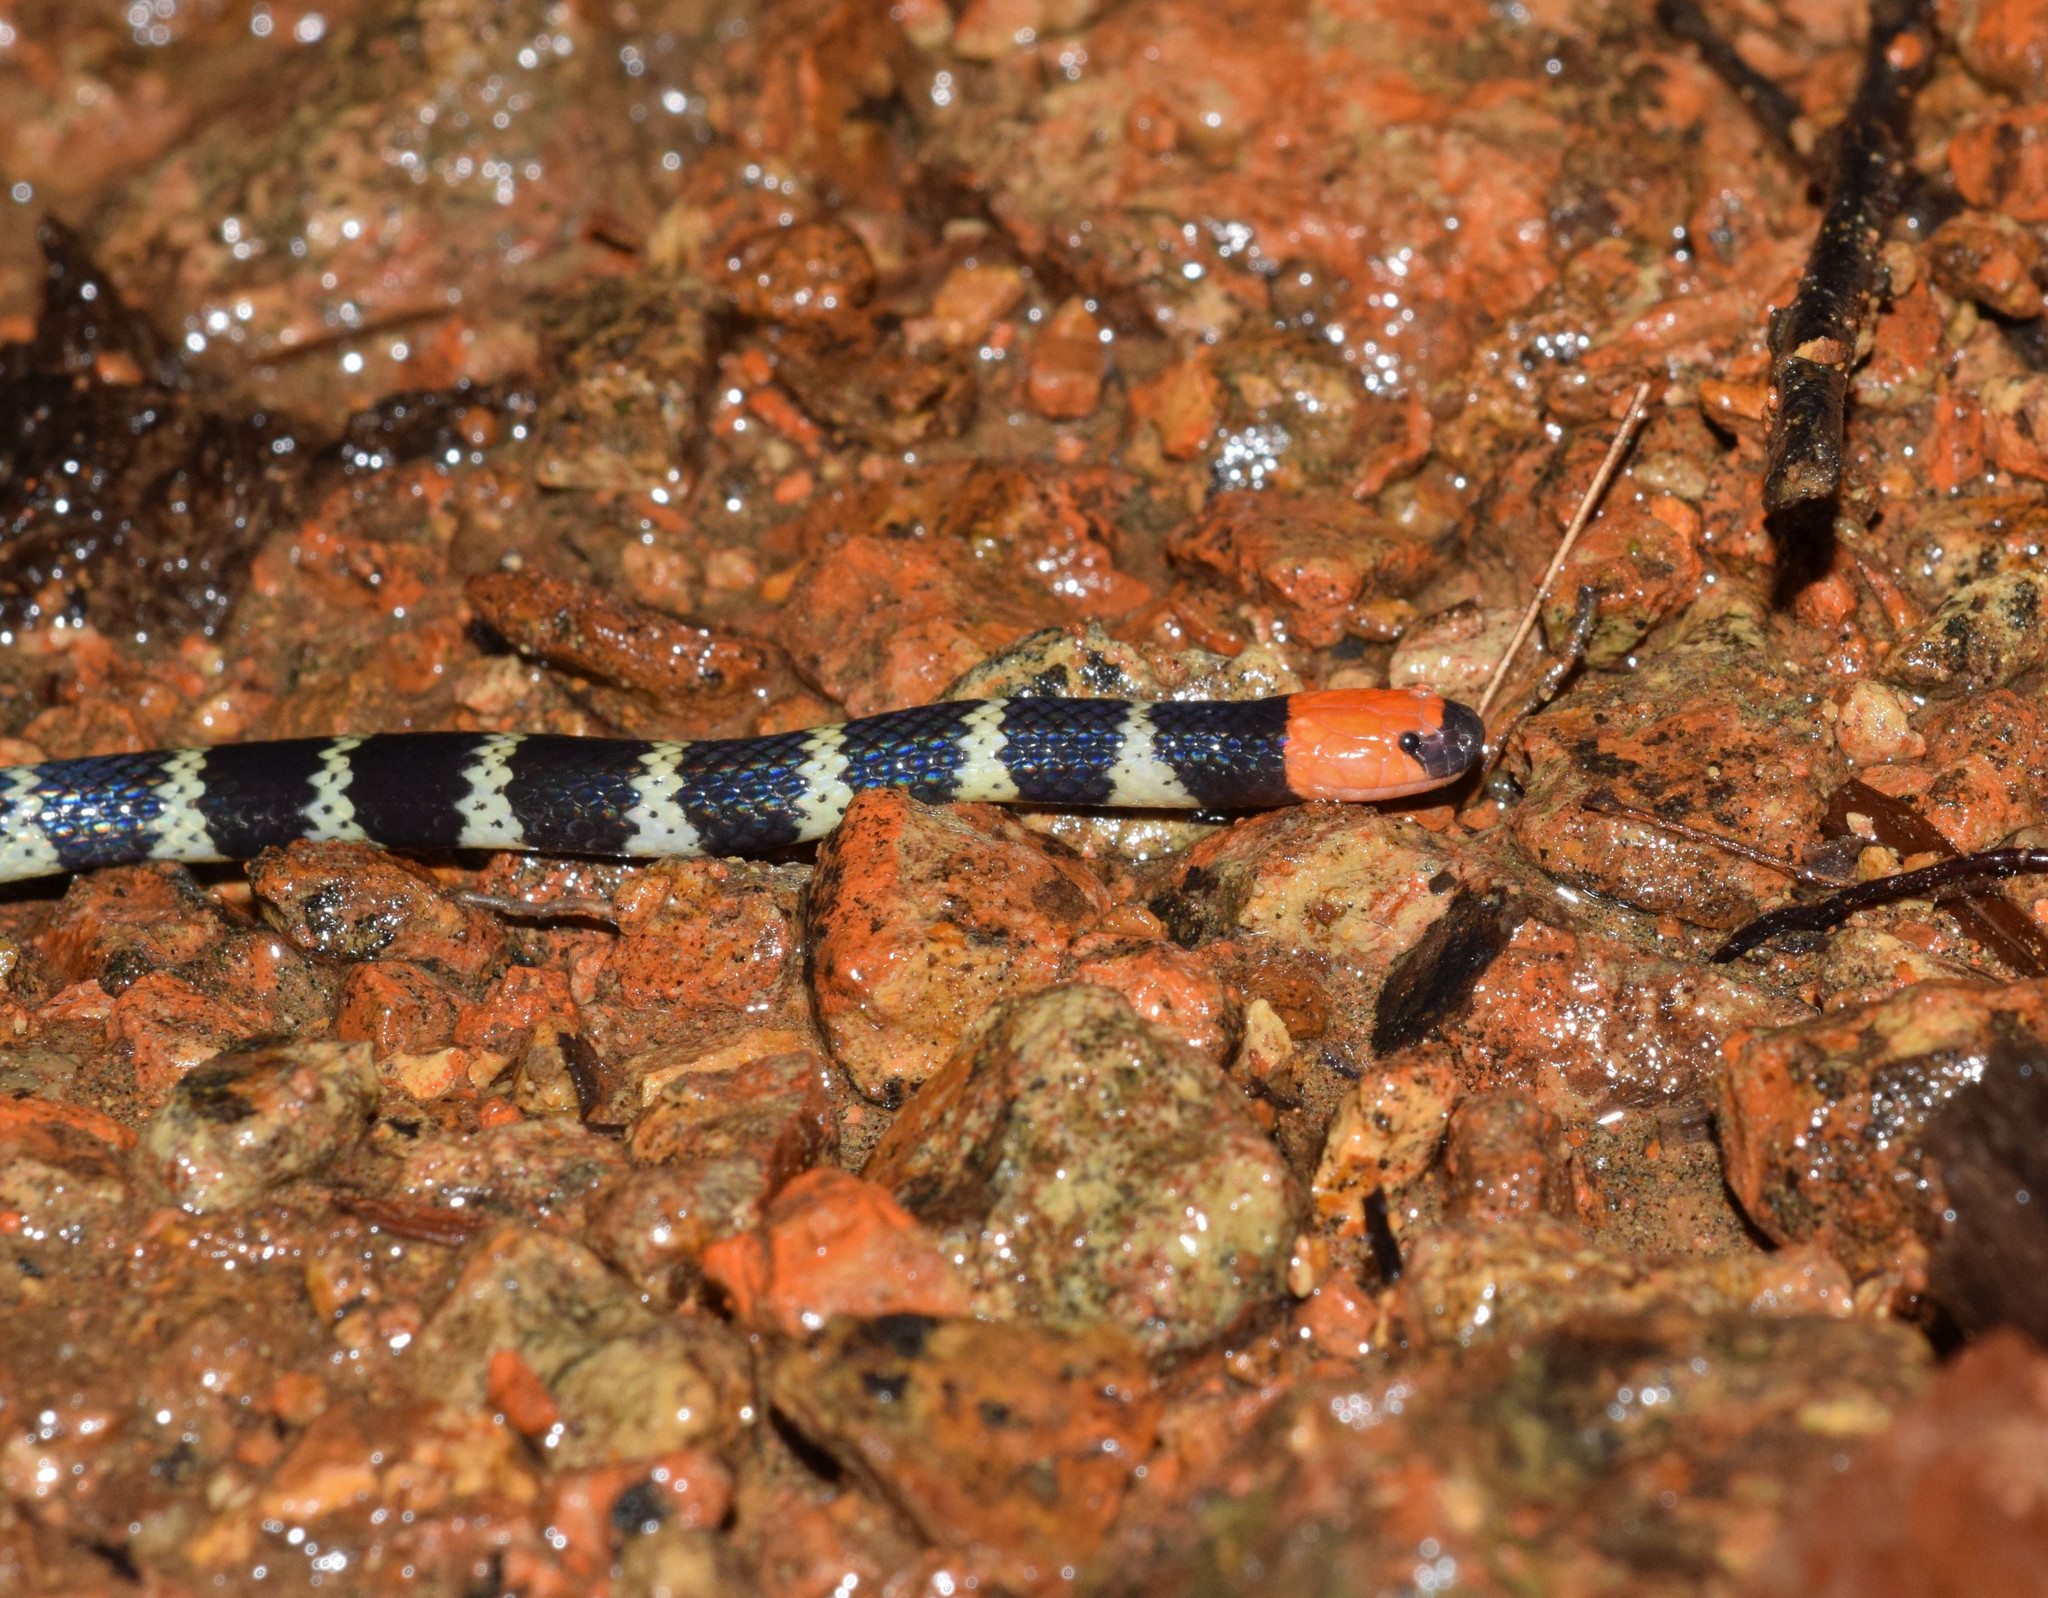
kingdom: Animalia
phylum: Chordata
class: Squamata
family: Elapidae
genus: Micrurus
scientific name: Micrurus mipartitus
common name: Redtail coral snake
